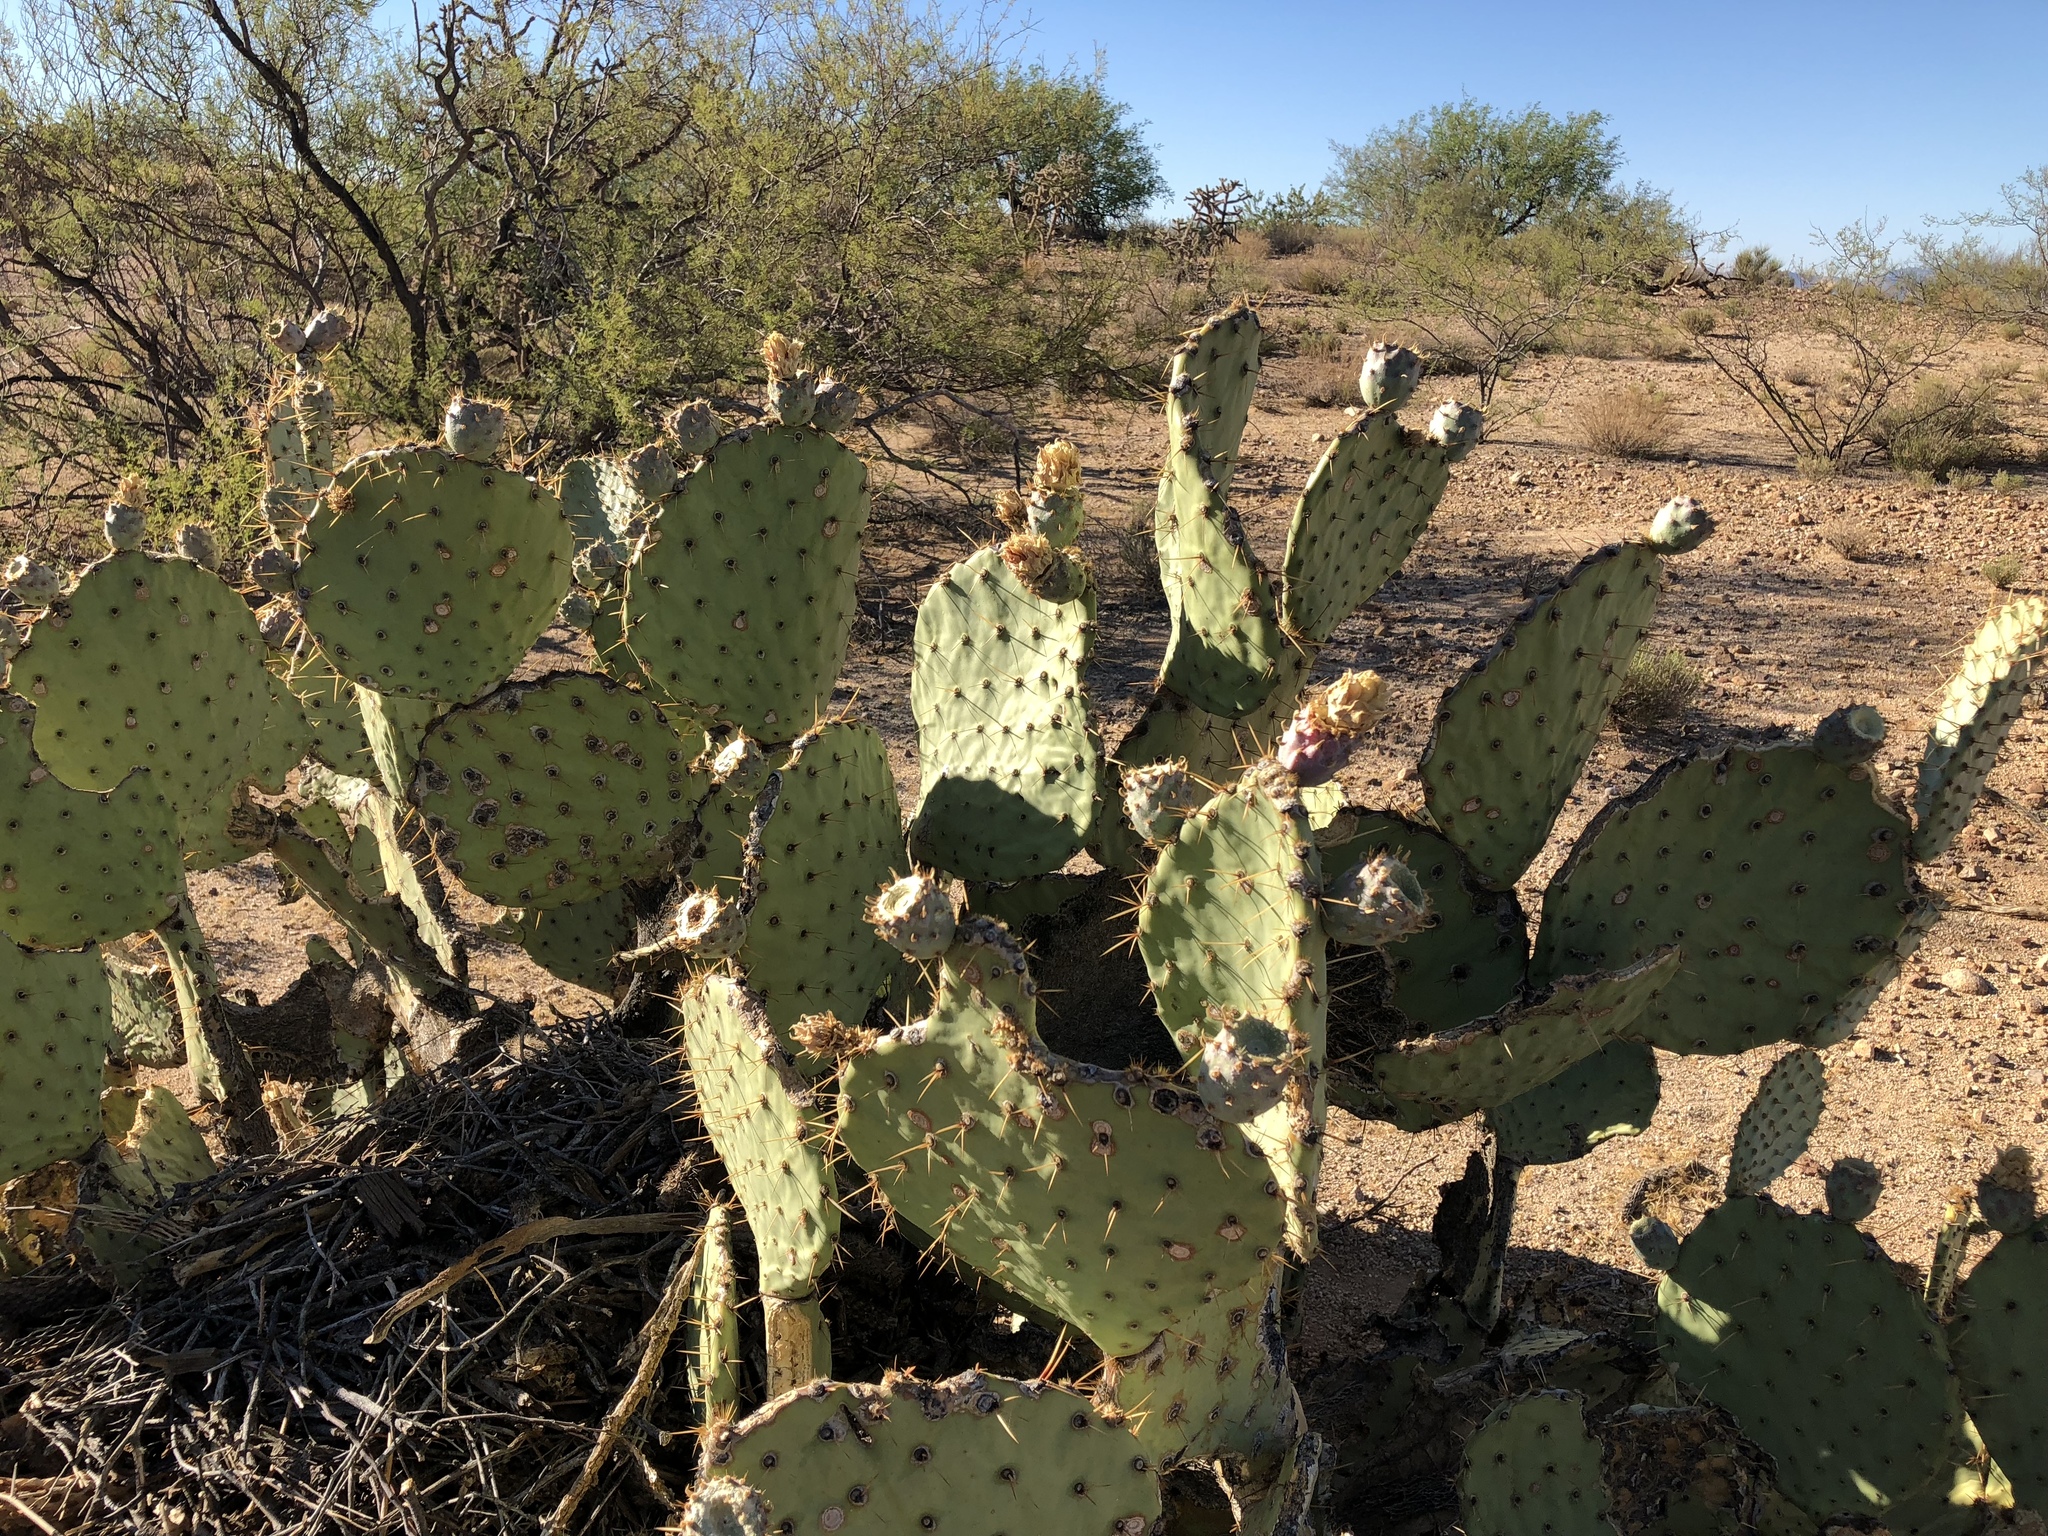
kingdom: Plantae
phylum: Tracheophyta
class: Magnoliopsida
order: Caryophyllales
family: Cactaceae
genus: Opuntia
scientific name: Opuntia engelmannii
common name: Cactus-apple
